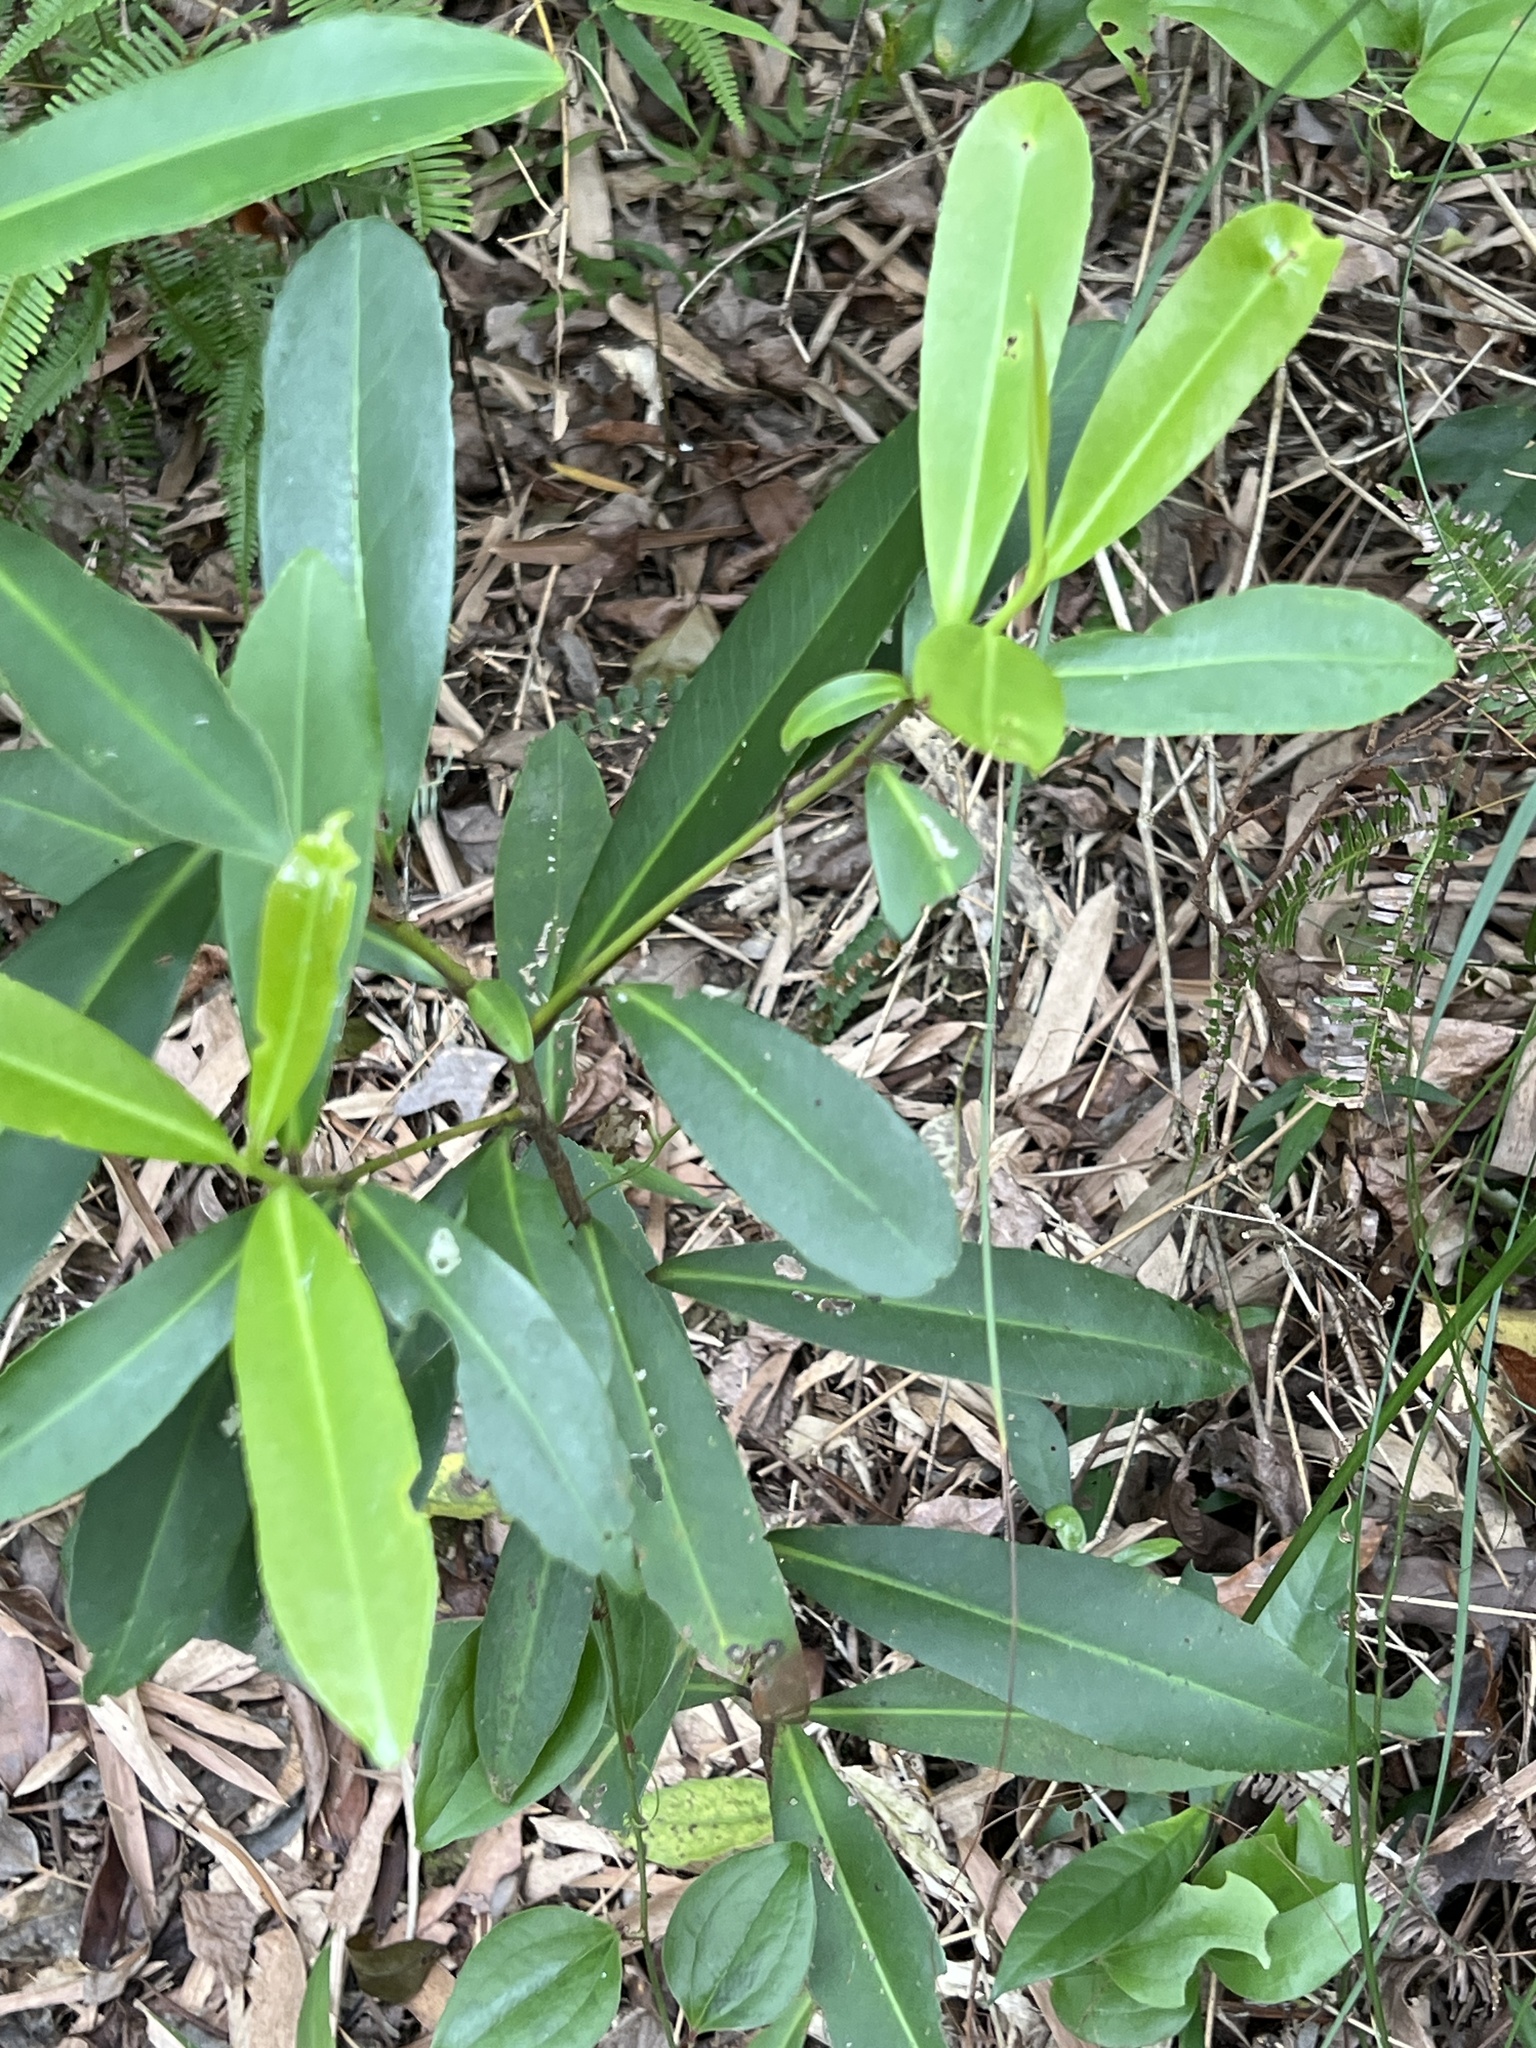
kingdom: Plantae
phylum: Tracheophyta
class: Magnoliopsida
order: Ericales
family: Theaceae
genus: Polyspora
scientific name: Polyspora axillaris
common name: Fried egg tree
